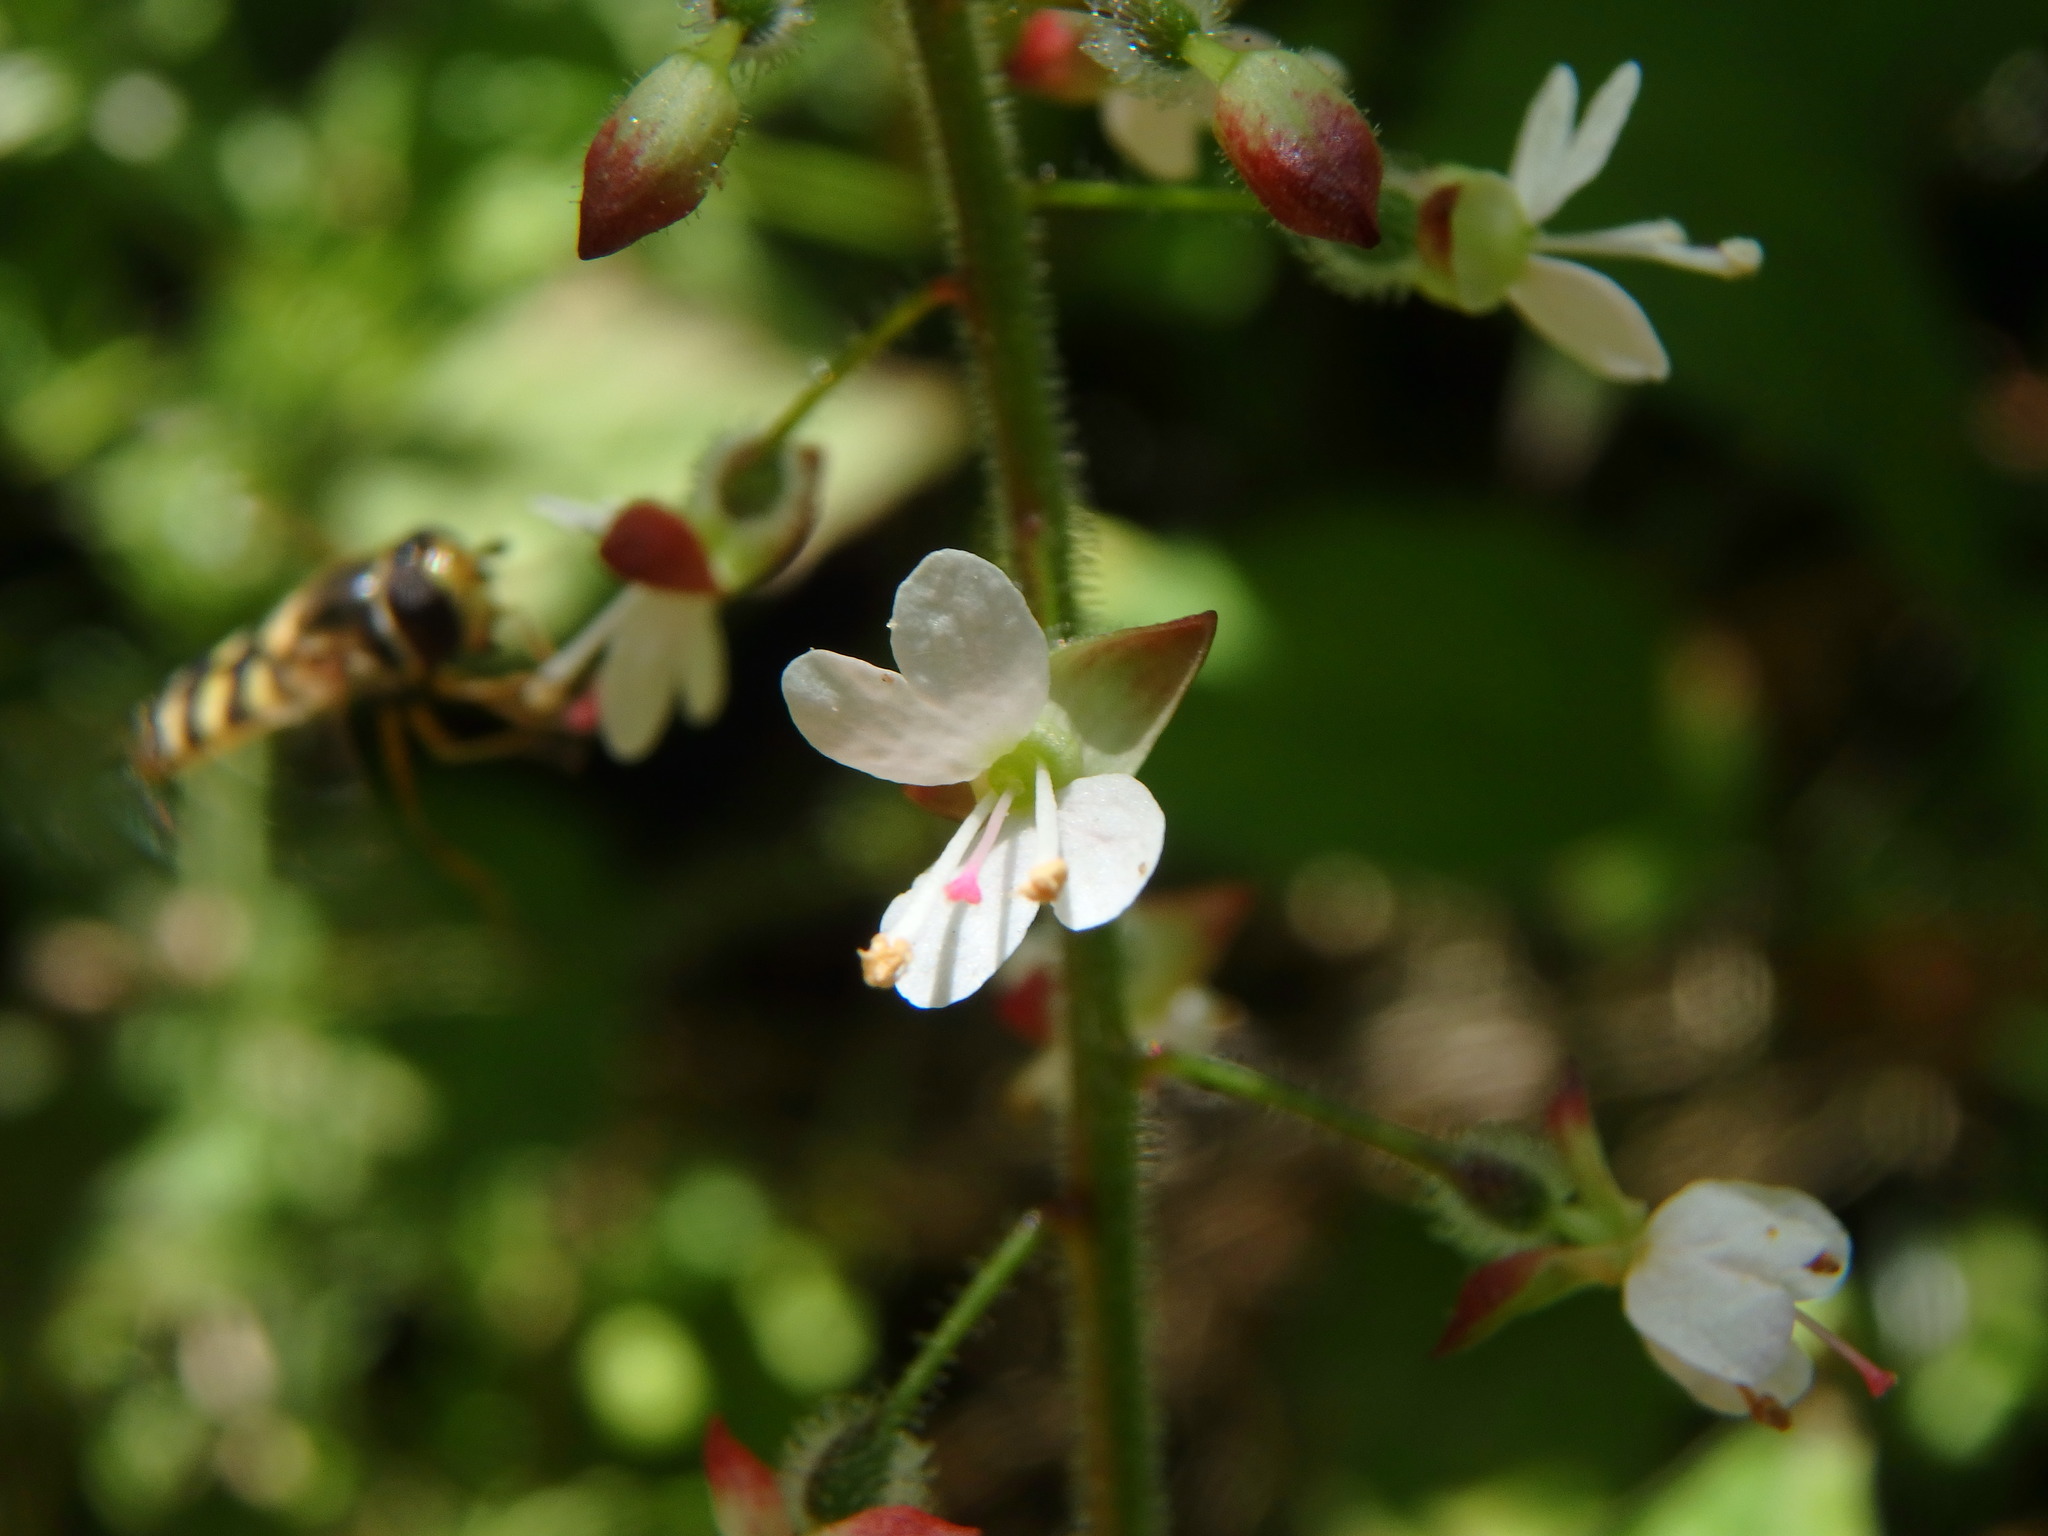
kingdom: Plantae
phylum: Tracheophyta
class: Magnoliopsida
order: Myrtales
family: Onagraceae
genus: Circaea
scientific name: Circaea lutetiana
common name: Enchanter's-nightshade
